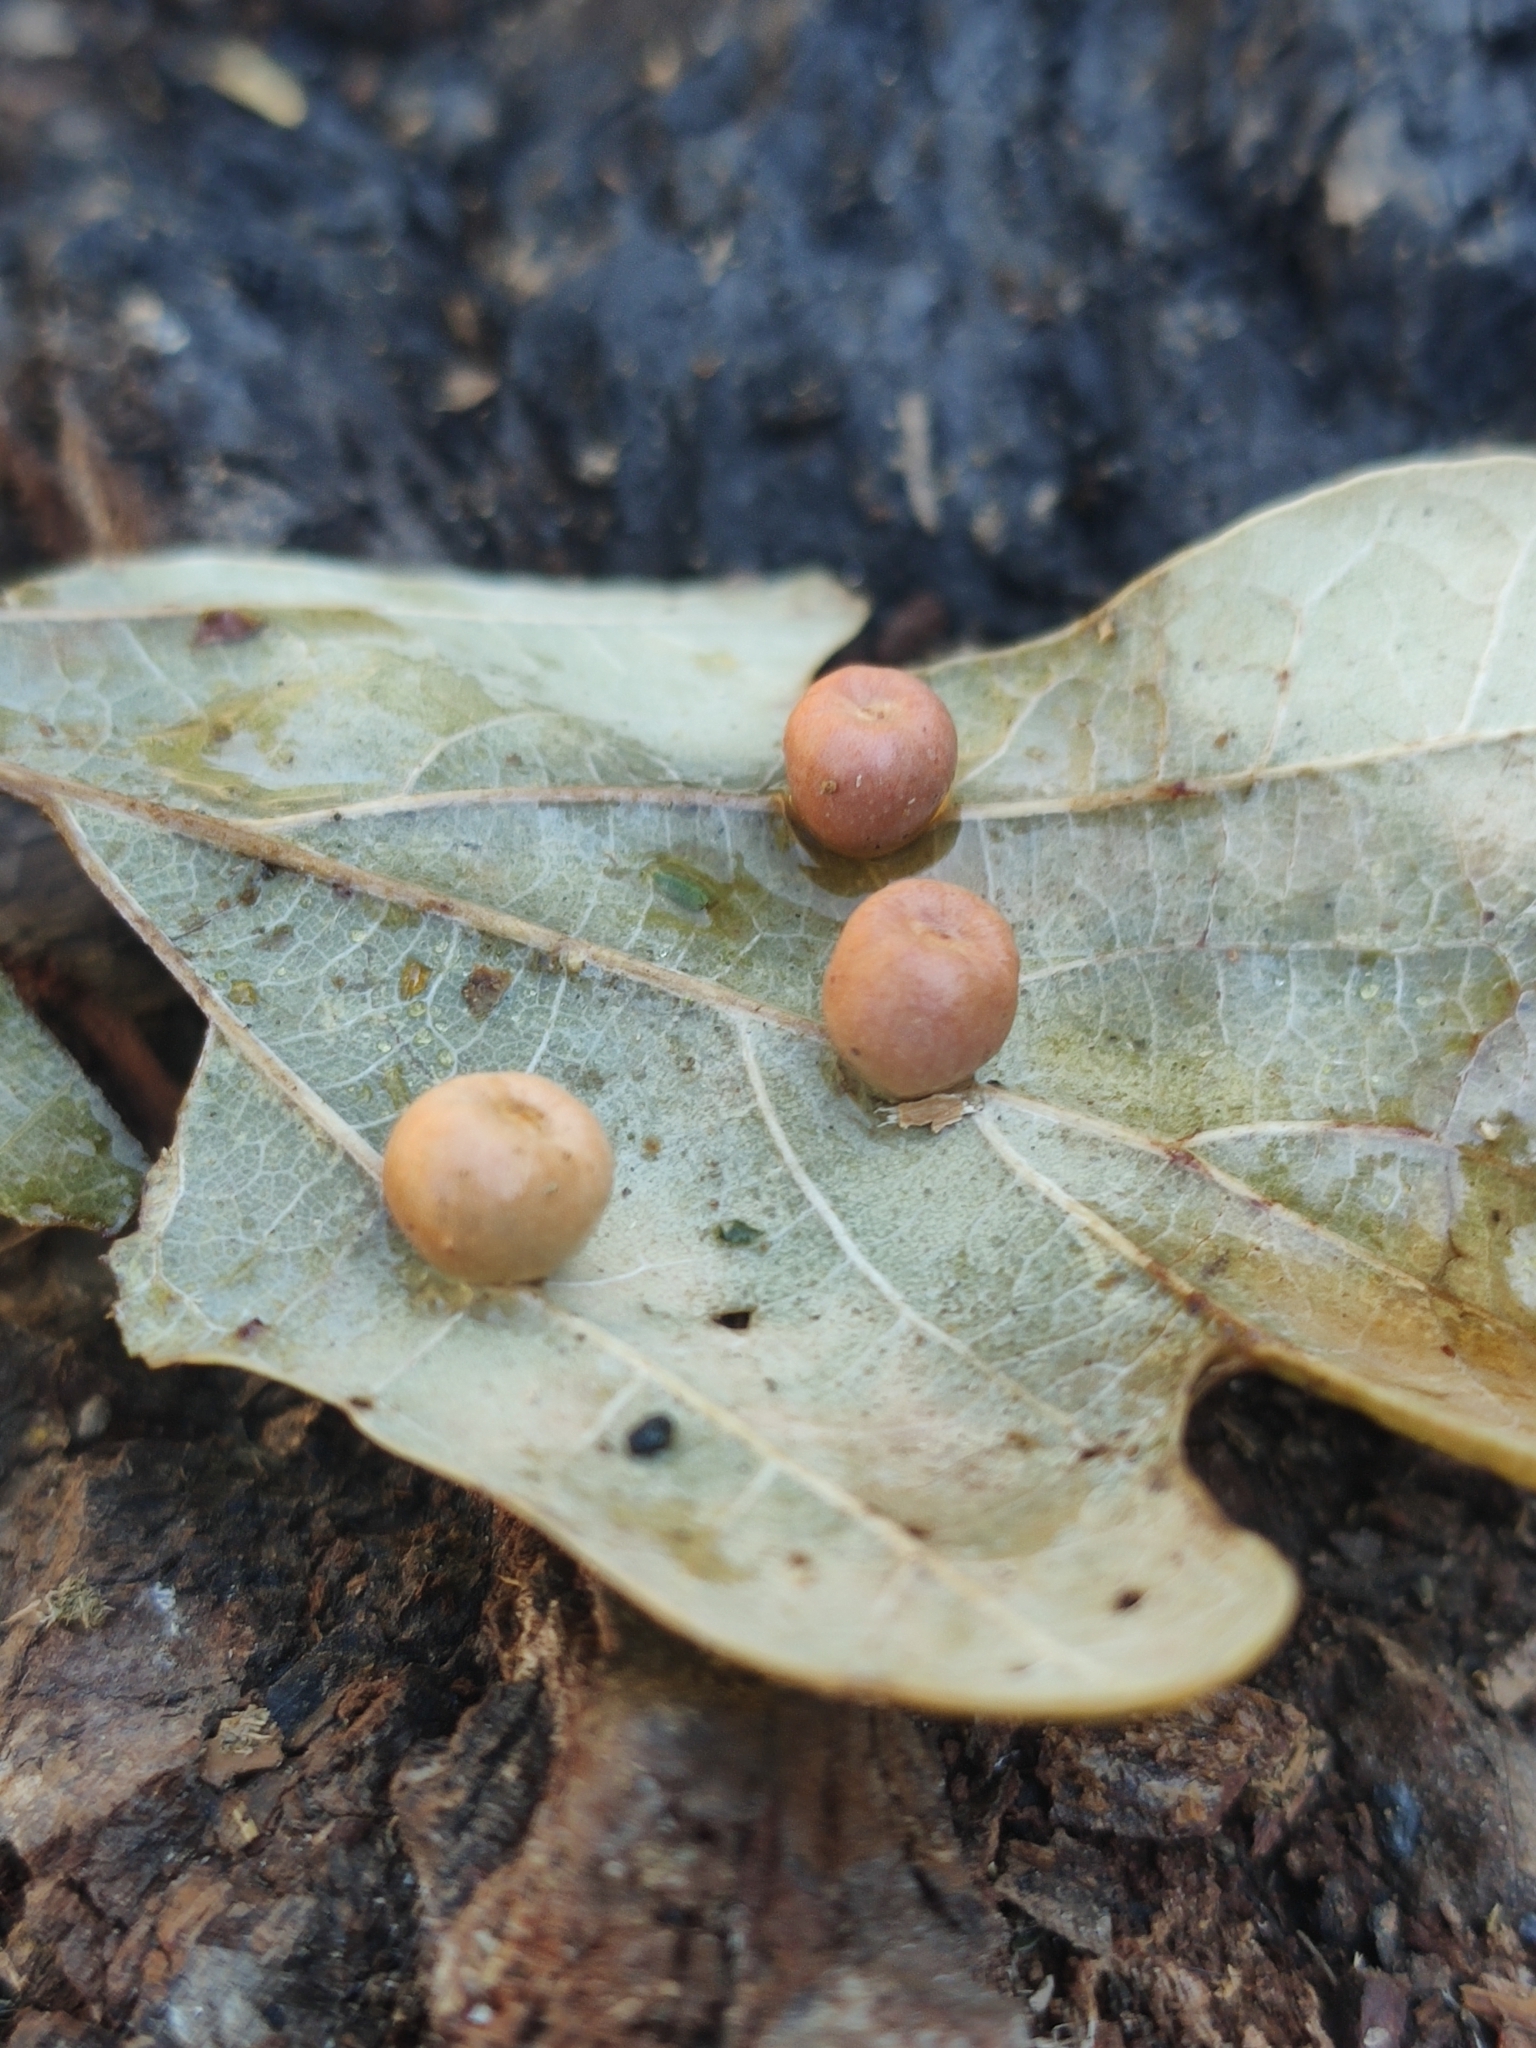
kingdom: Animalia
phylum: Arthropoda
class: Insecta
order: Hymenoptera
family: Cynipidae
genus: Cynips
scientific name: Cynips disticha
